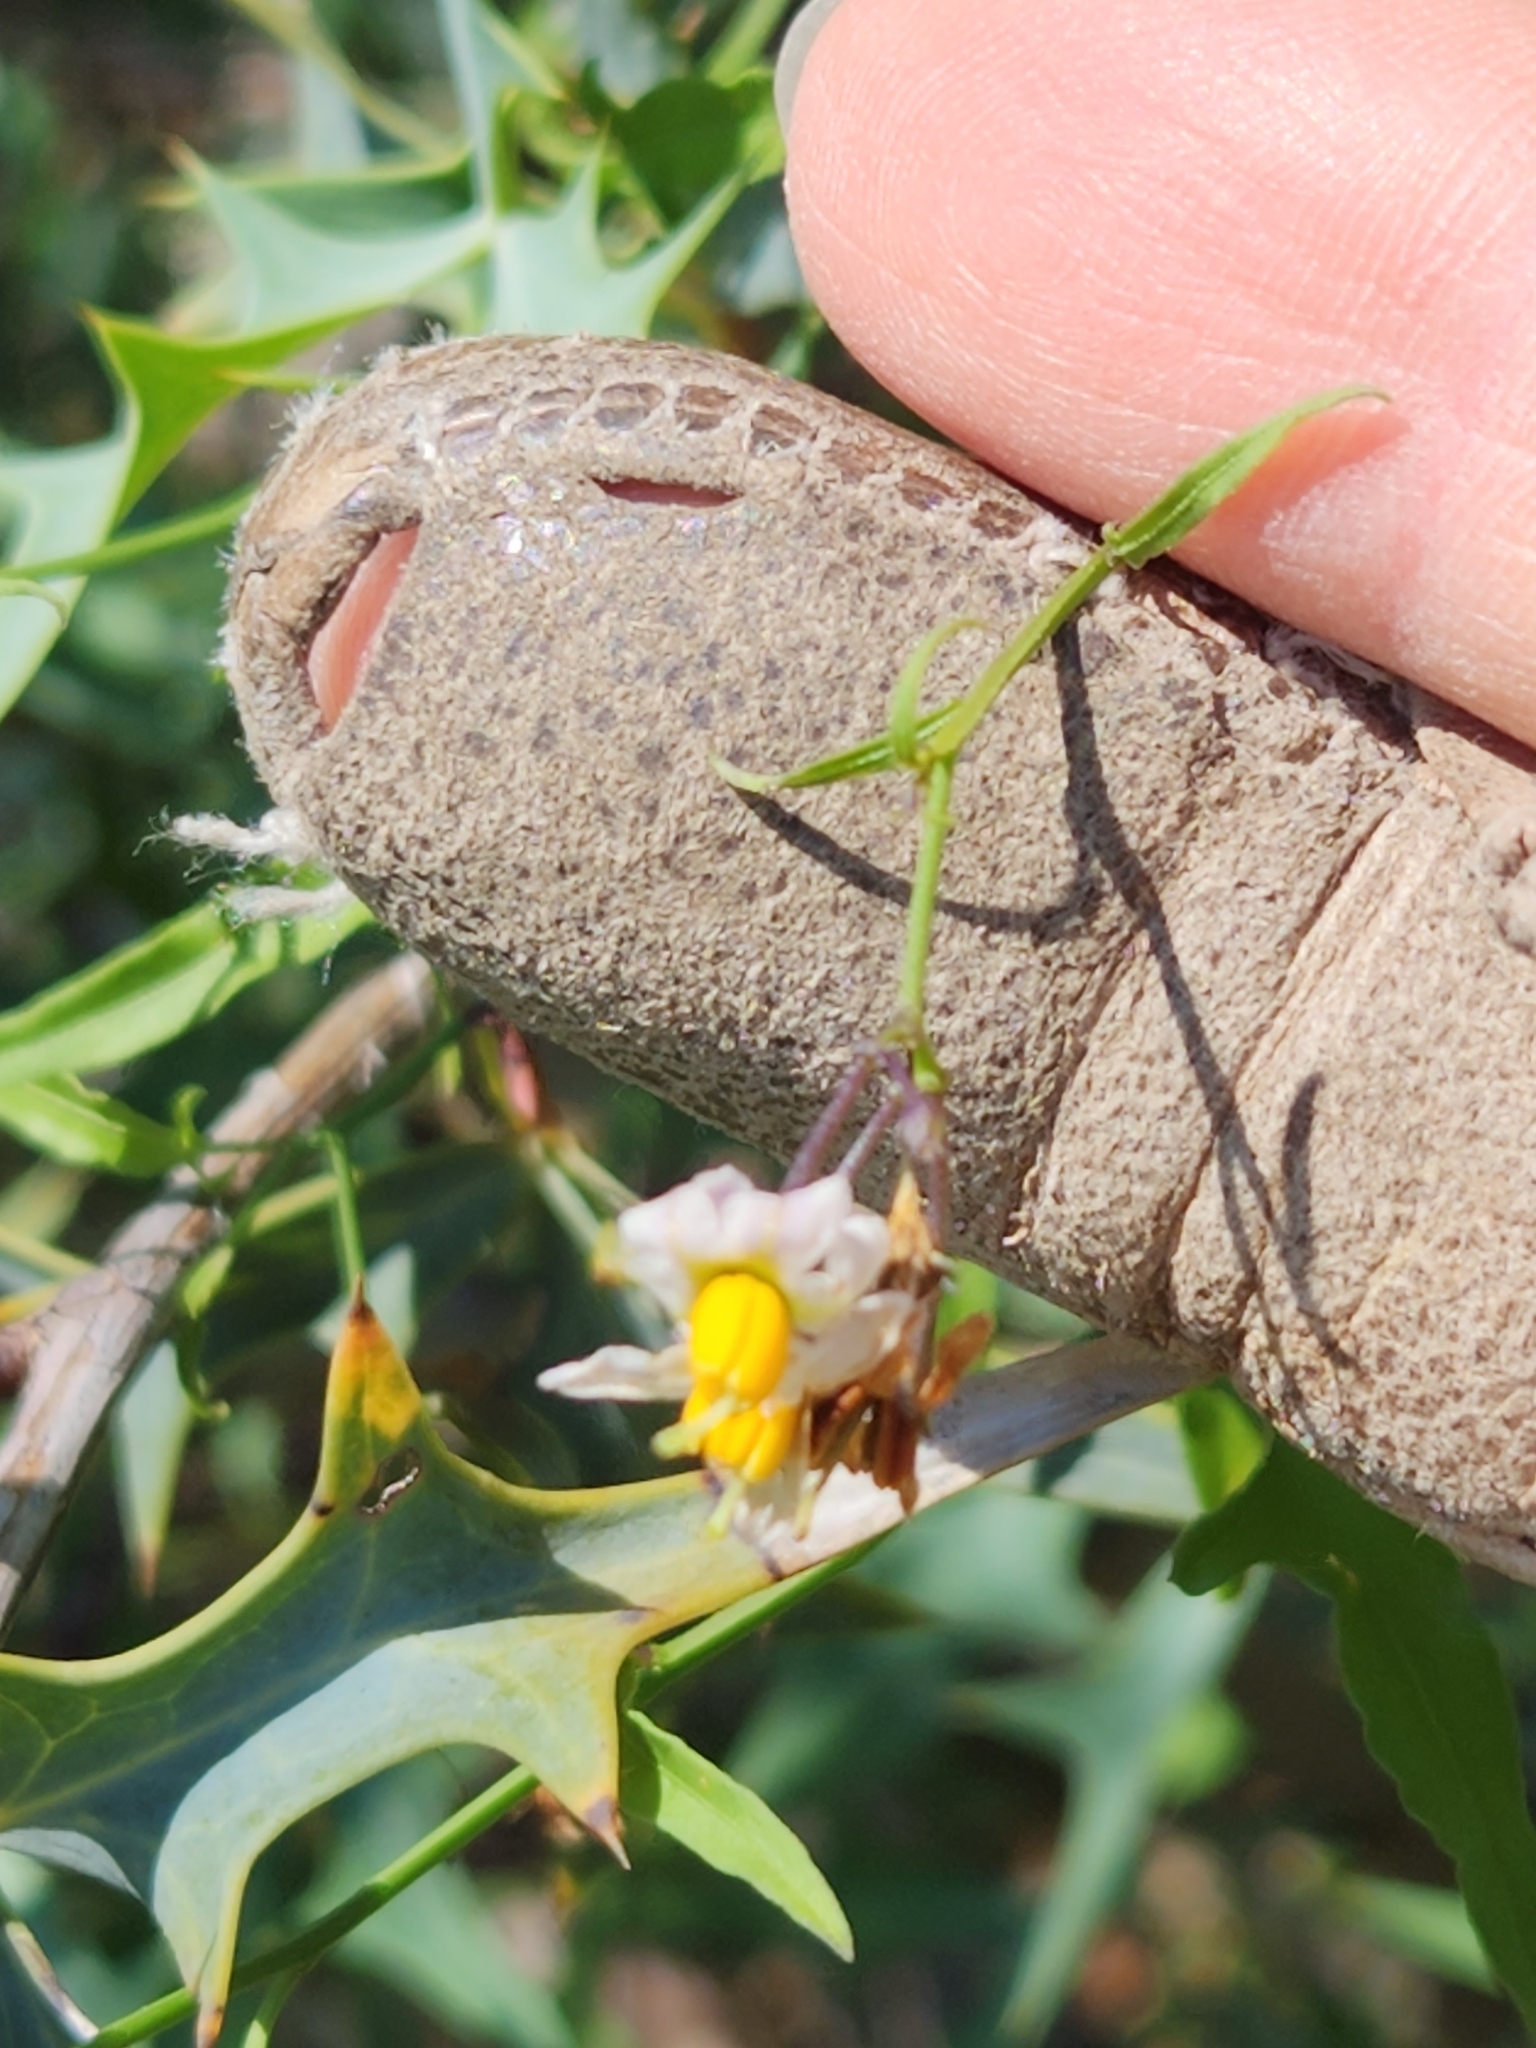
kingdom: Plantae
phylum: Tracheophyta
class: Magnoliopsida
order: Solanales
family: Solanaceae
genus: Solanum
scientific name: Solanum triquetrum
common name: Texas nightshade
